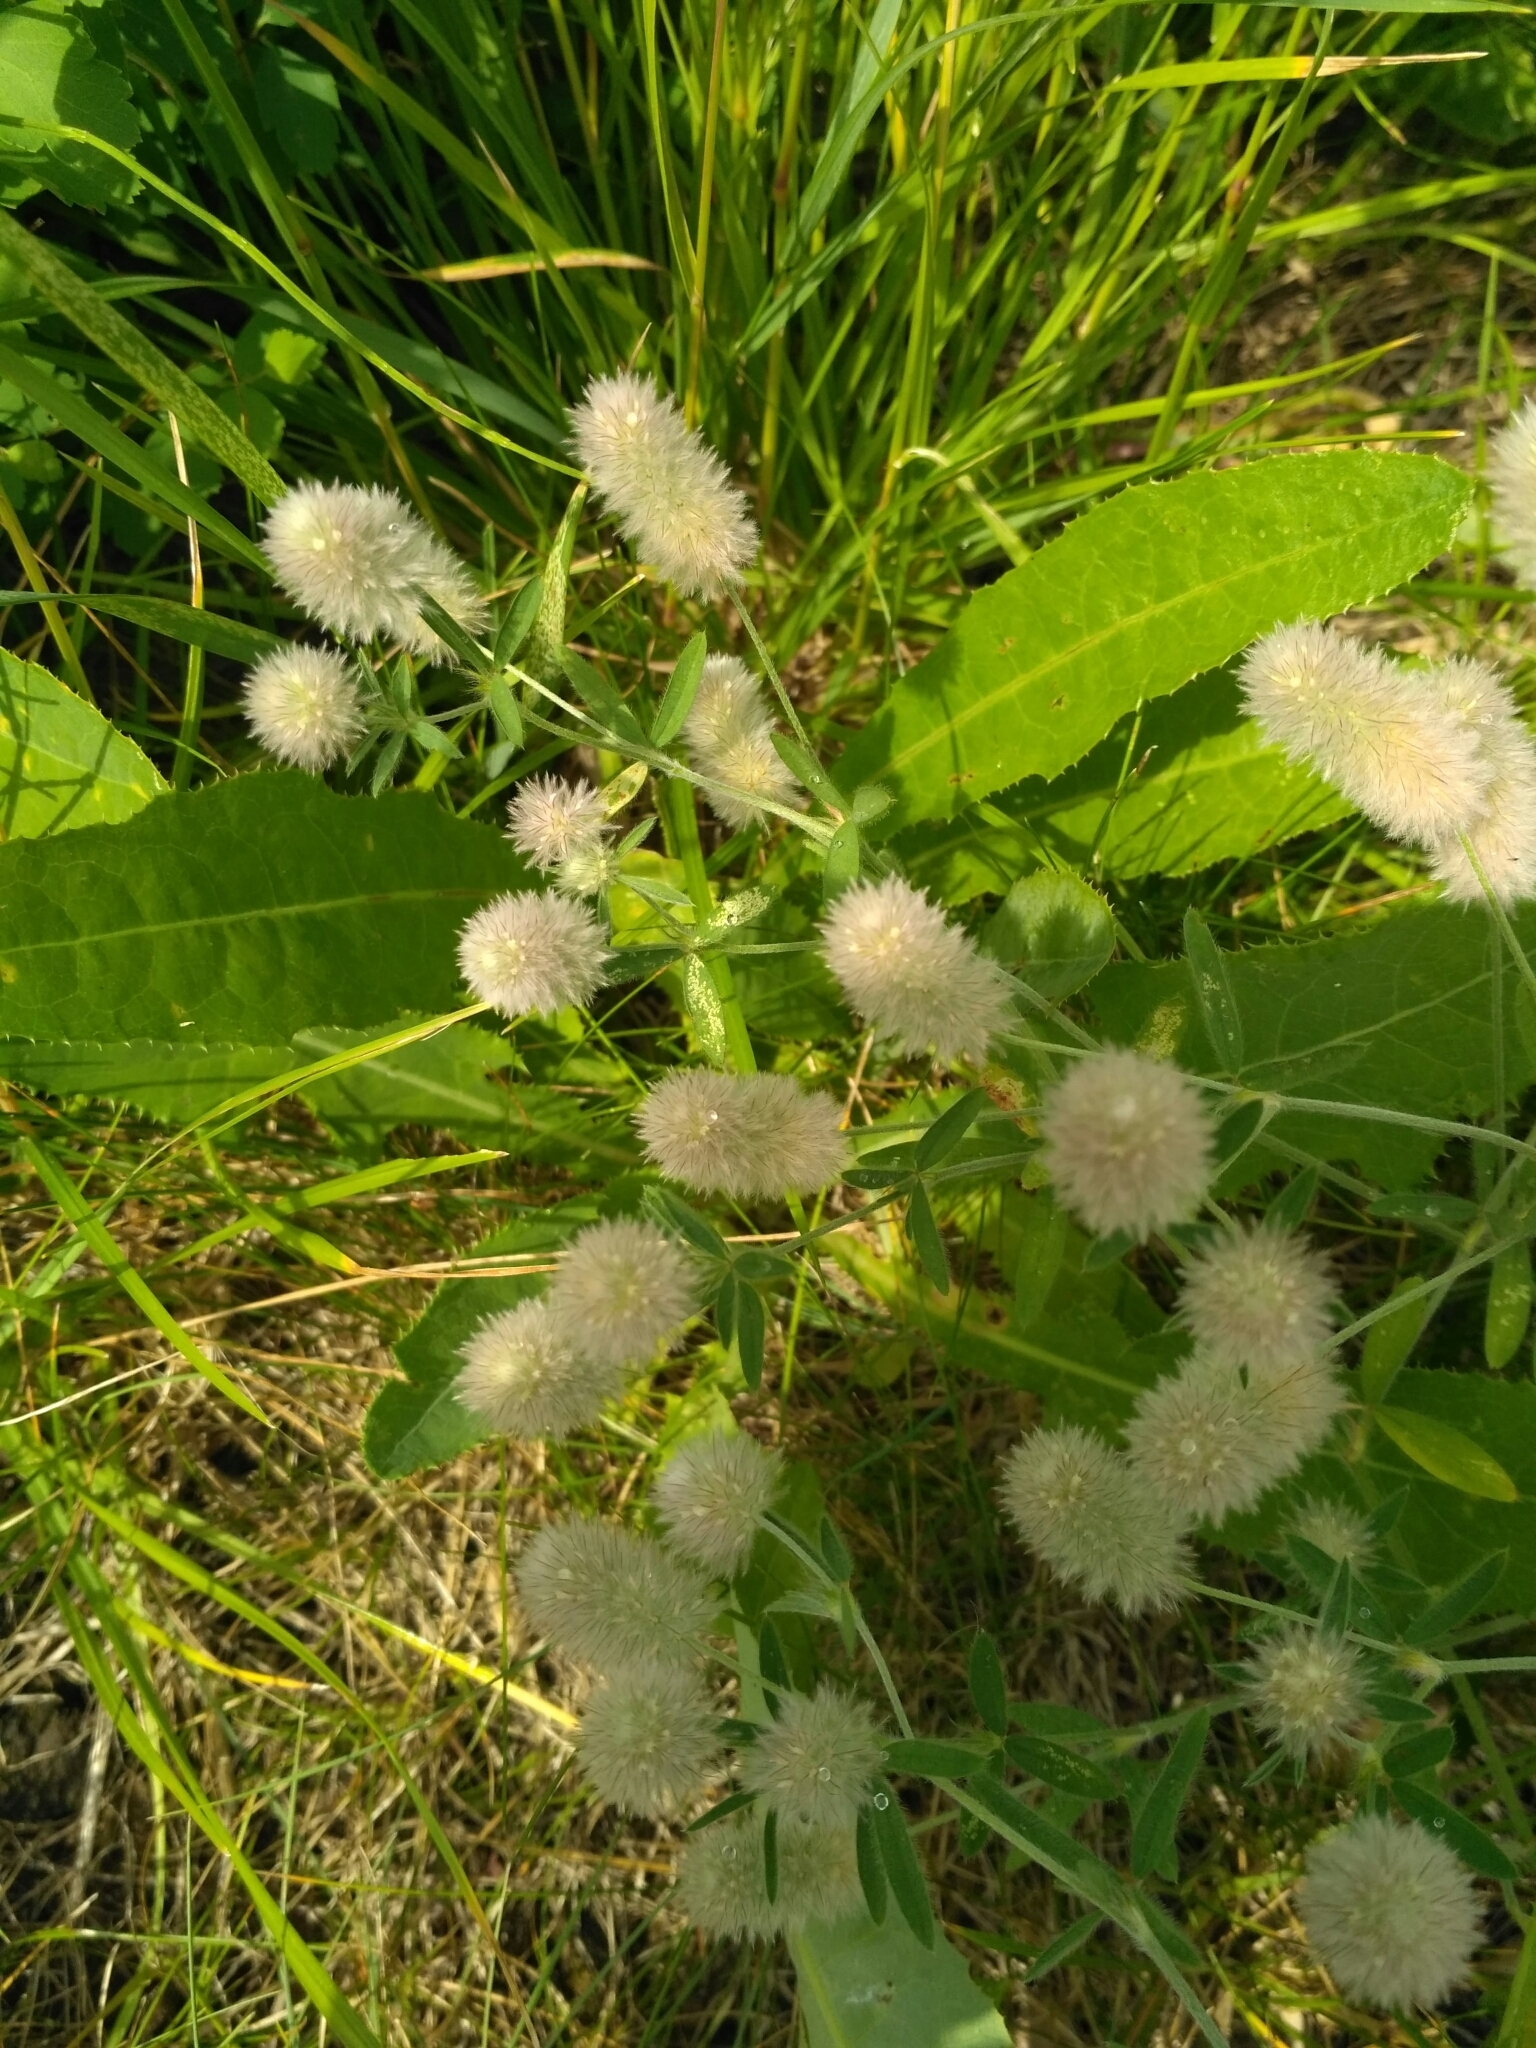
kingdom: Plantae
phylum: Tracheophyta
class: Magnoliopsida
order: Fabales
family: Fabaceae
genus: Trifolium
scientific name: Trifolium arvense
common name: Hare's-foot clover
